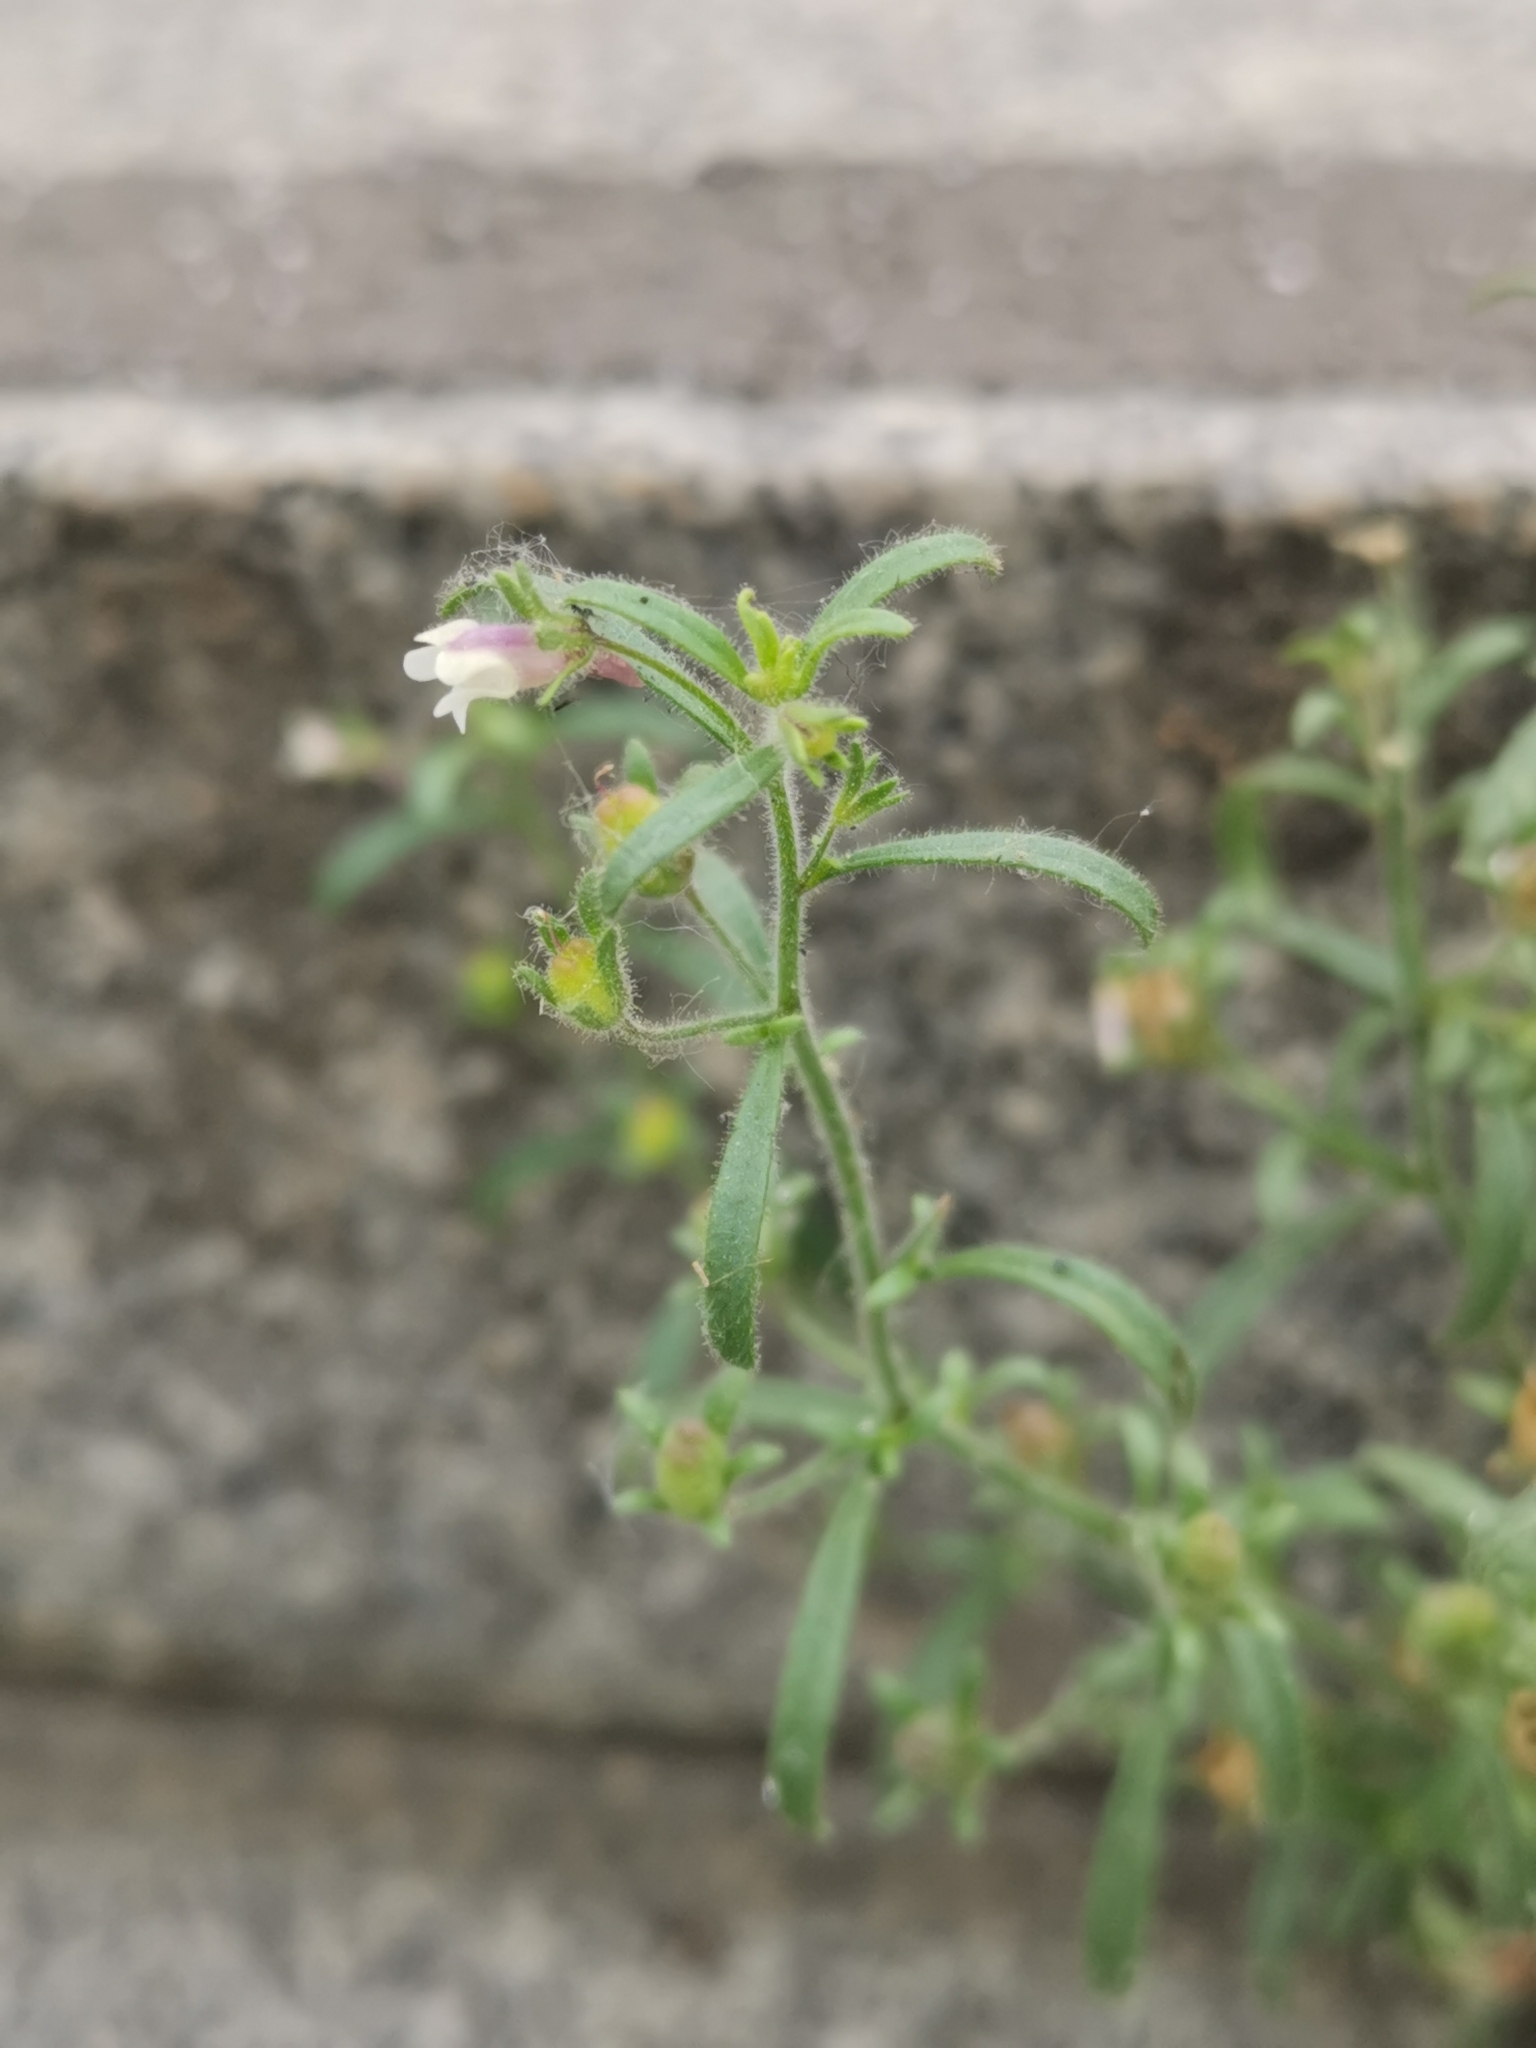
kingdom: Plantae
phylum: Tracheophyta
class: Magnoliopsida
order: Lamiales
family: Plantaginaceae
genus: Chaenorhinum
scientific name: Chaenorhinum minus
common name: Dwarf snapdragon
